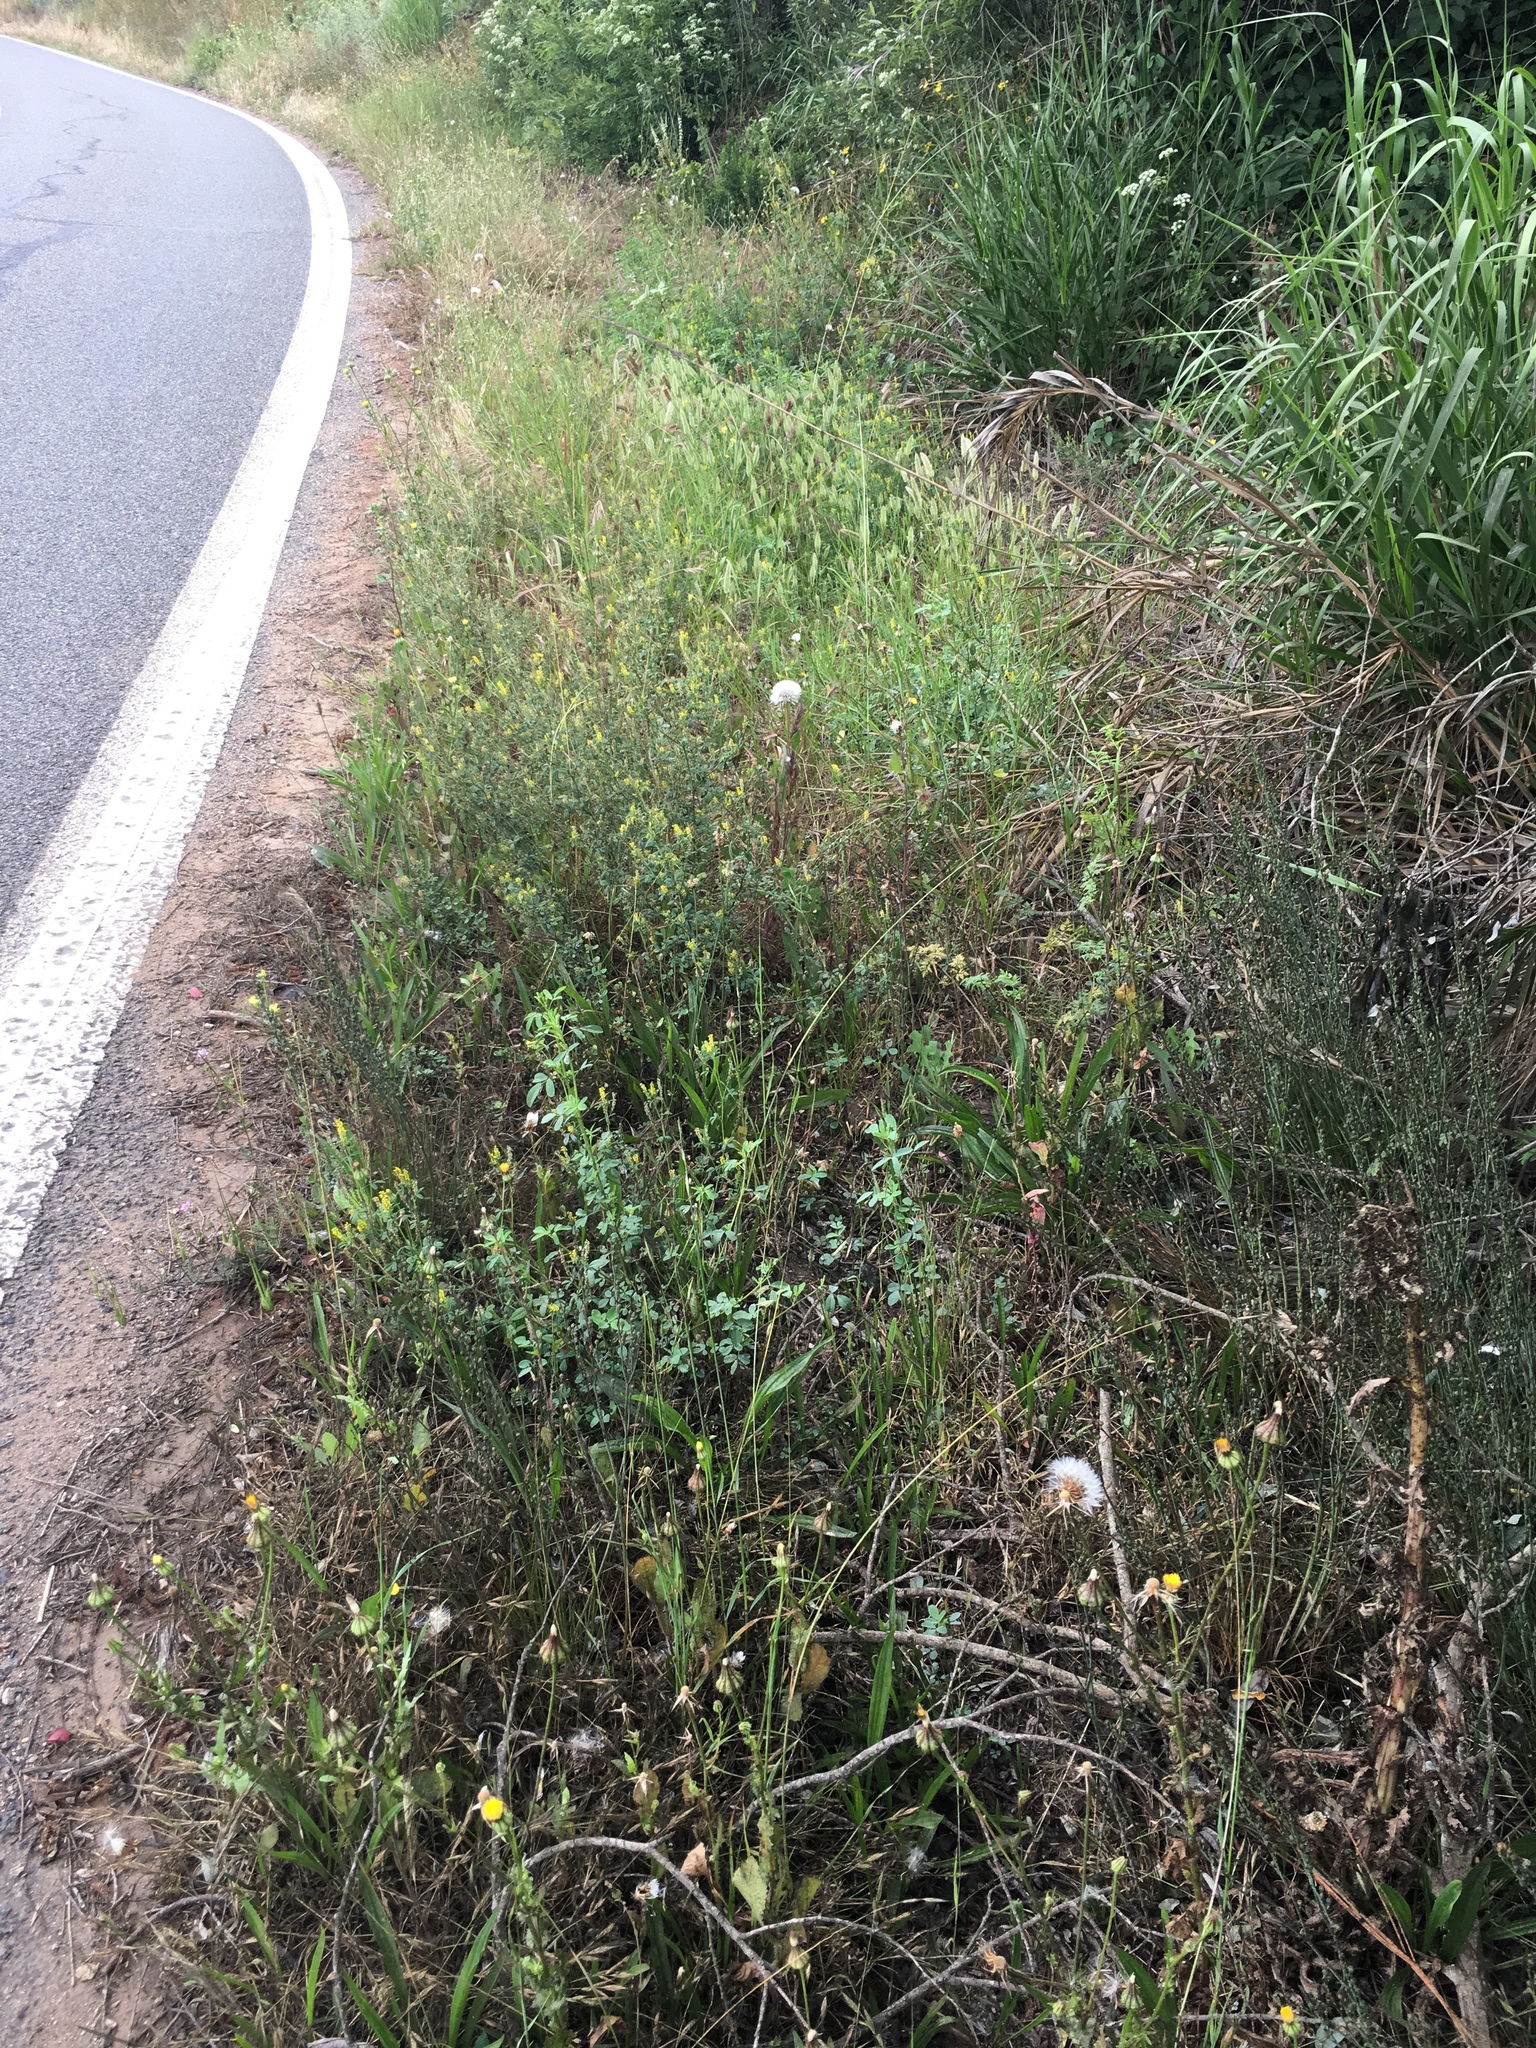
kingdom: Plantae
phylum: Tracheophyta
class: Magnoliopsida
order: Asterales
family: Asteraceae
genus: Urospermum
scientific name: Urospermum picroides
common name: False hawkbit
